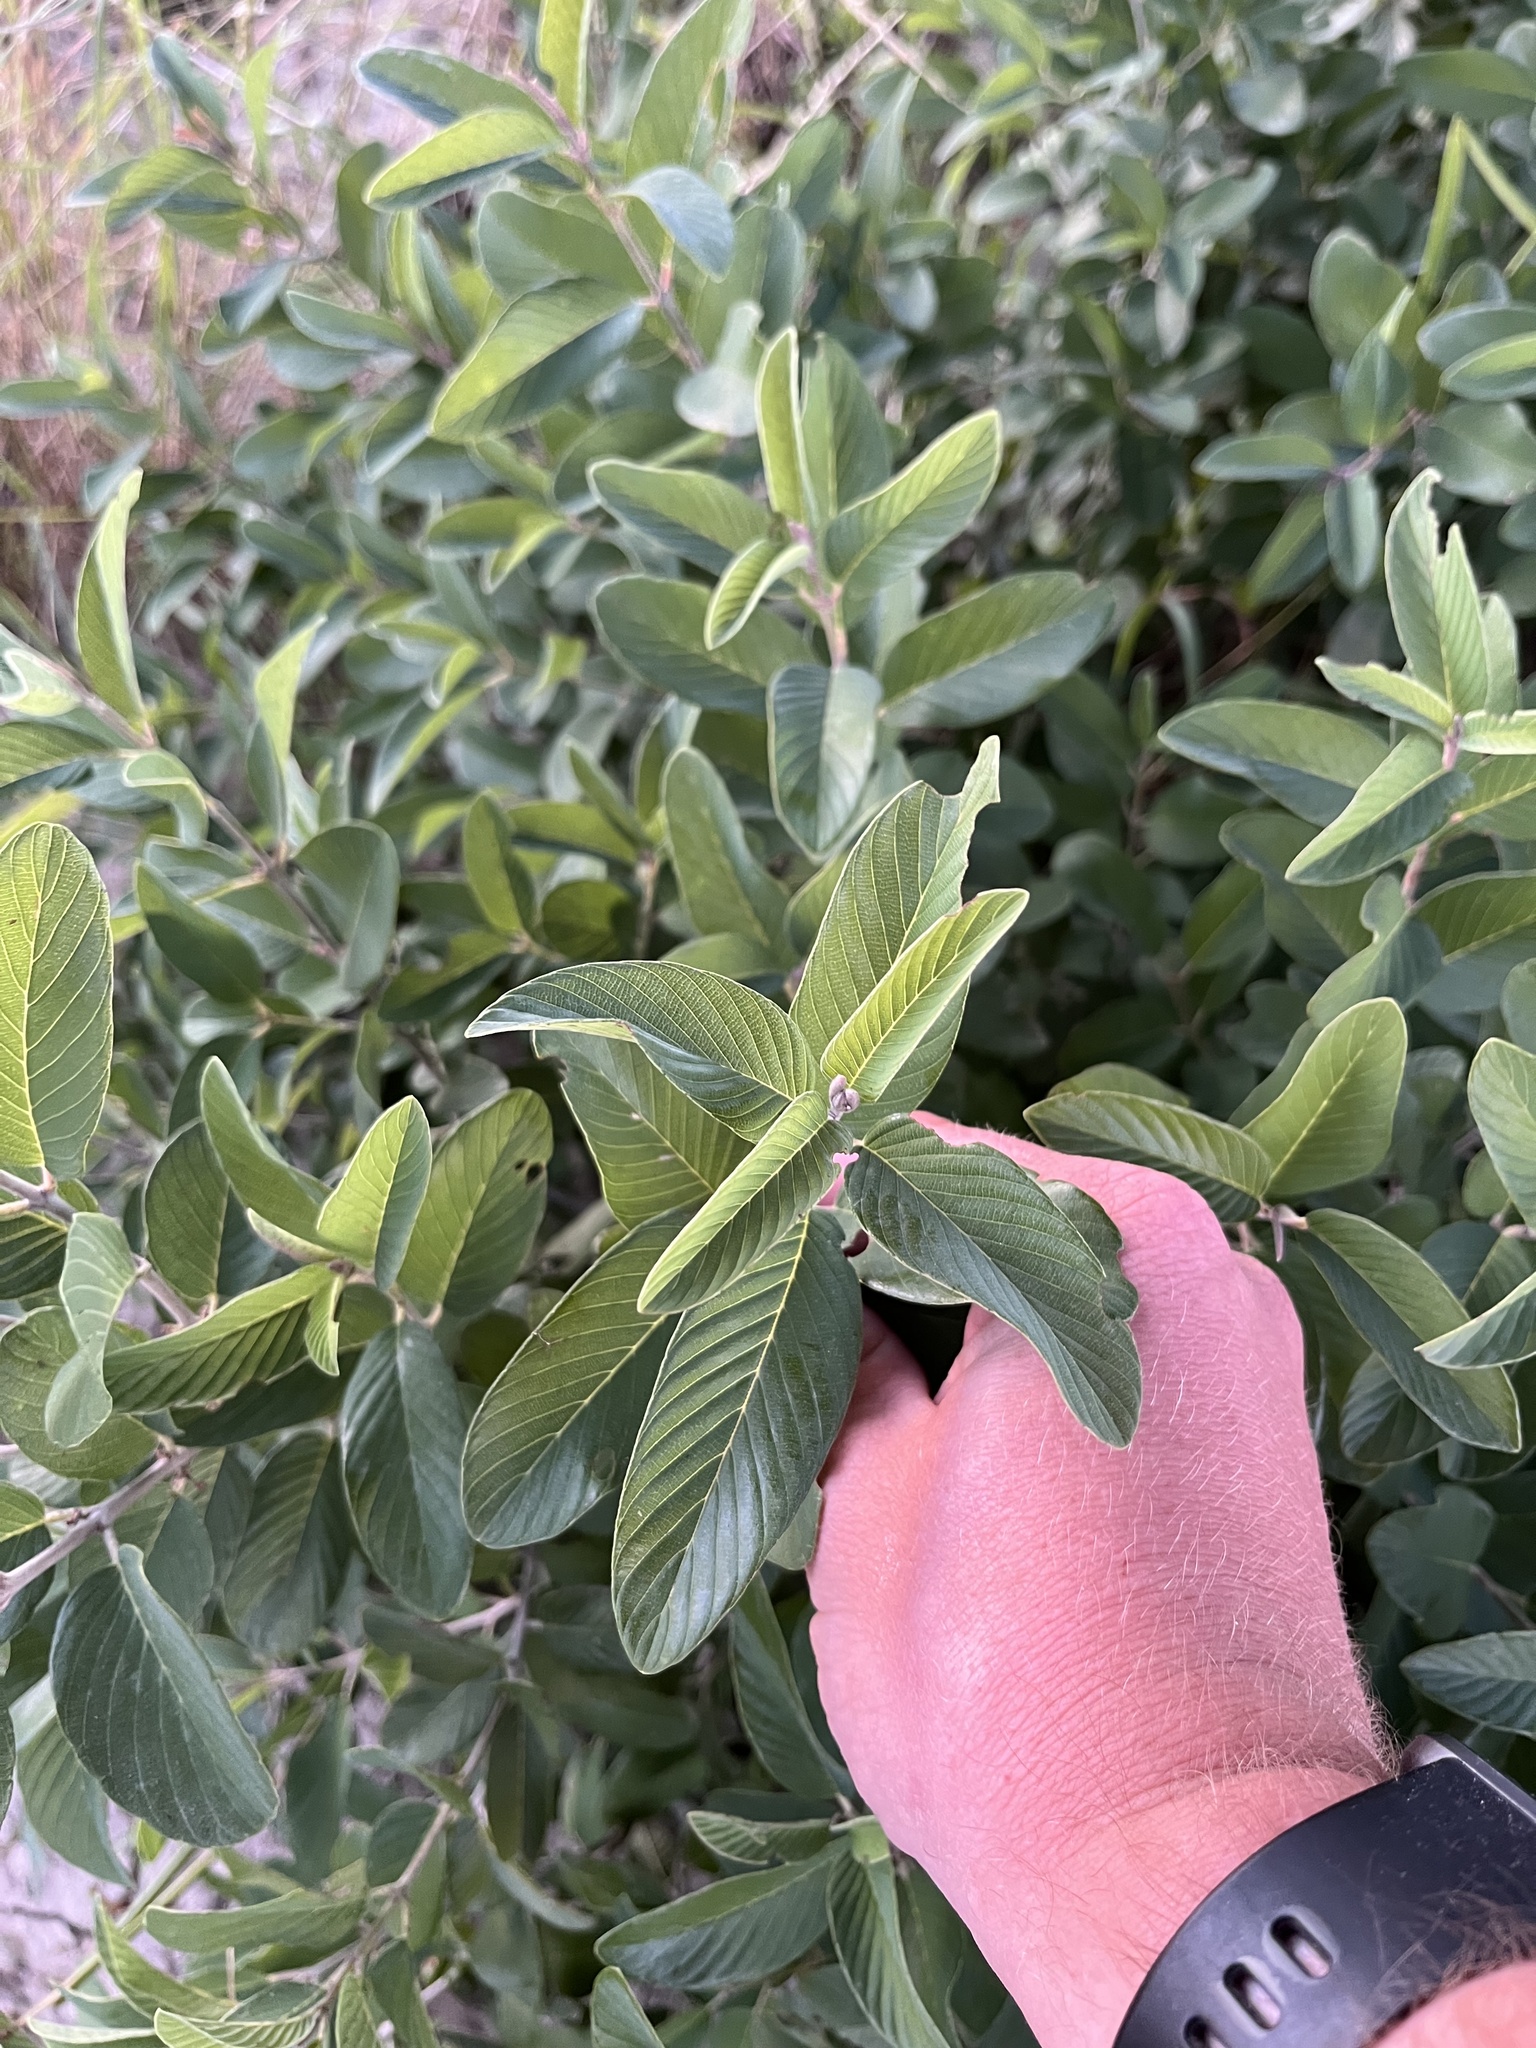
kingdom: Plantae
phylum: Tracheophyta
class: Magnoliopsida
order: Rosales
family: Rhamnaceae
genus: Karwinskia
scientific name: Karwinskia humboldtiana
